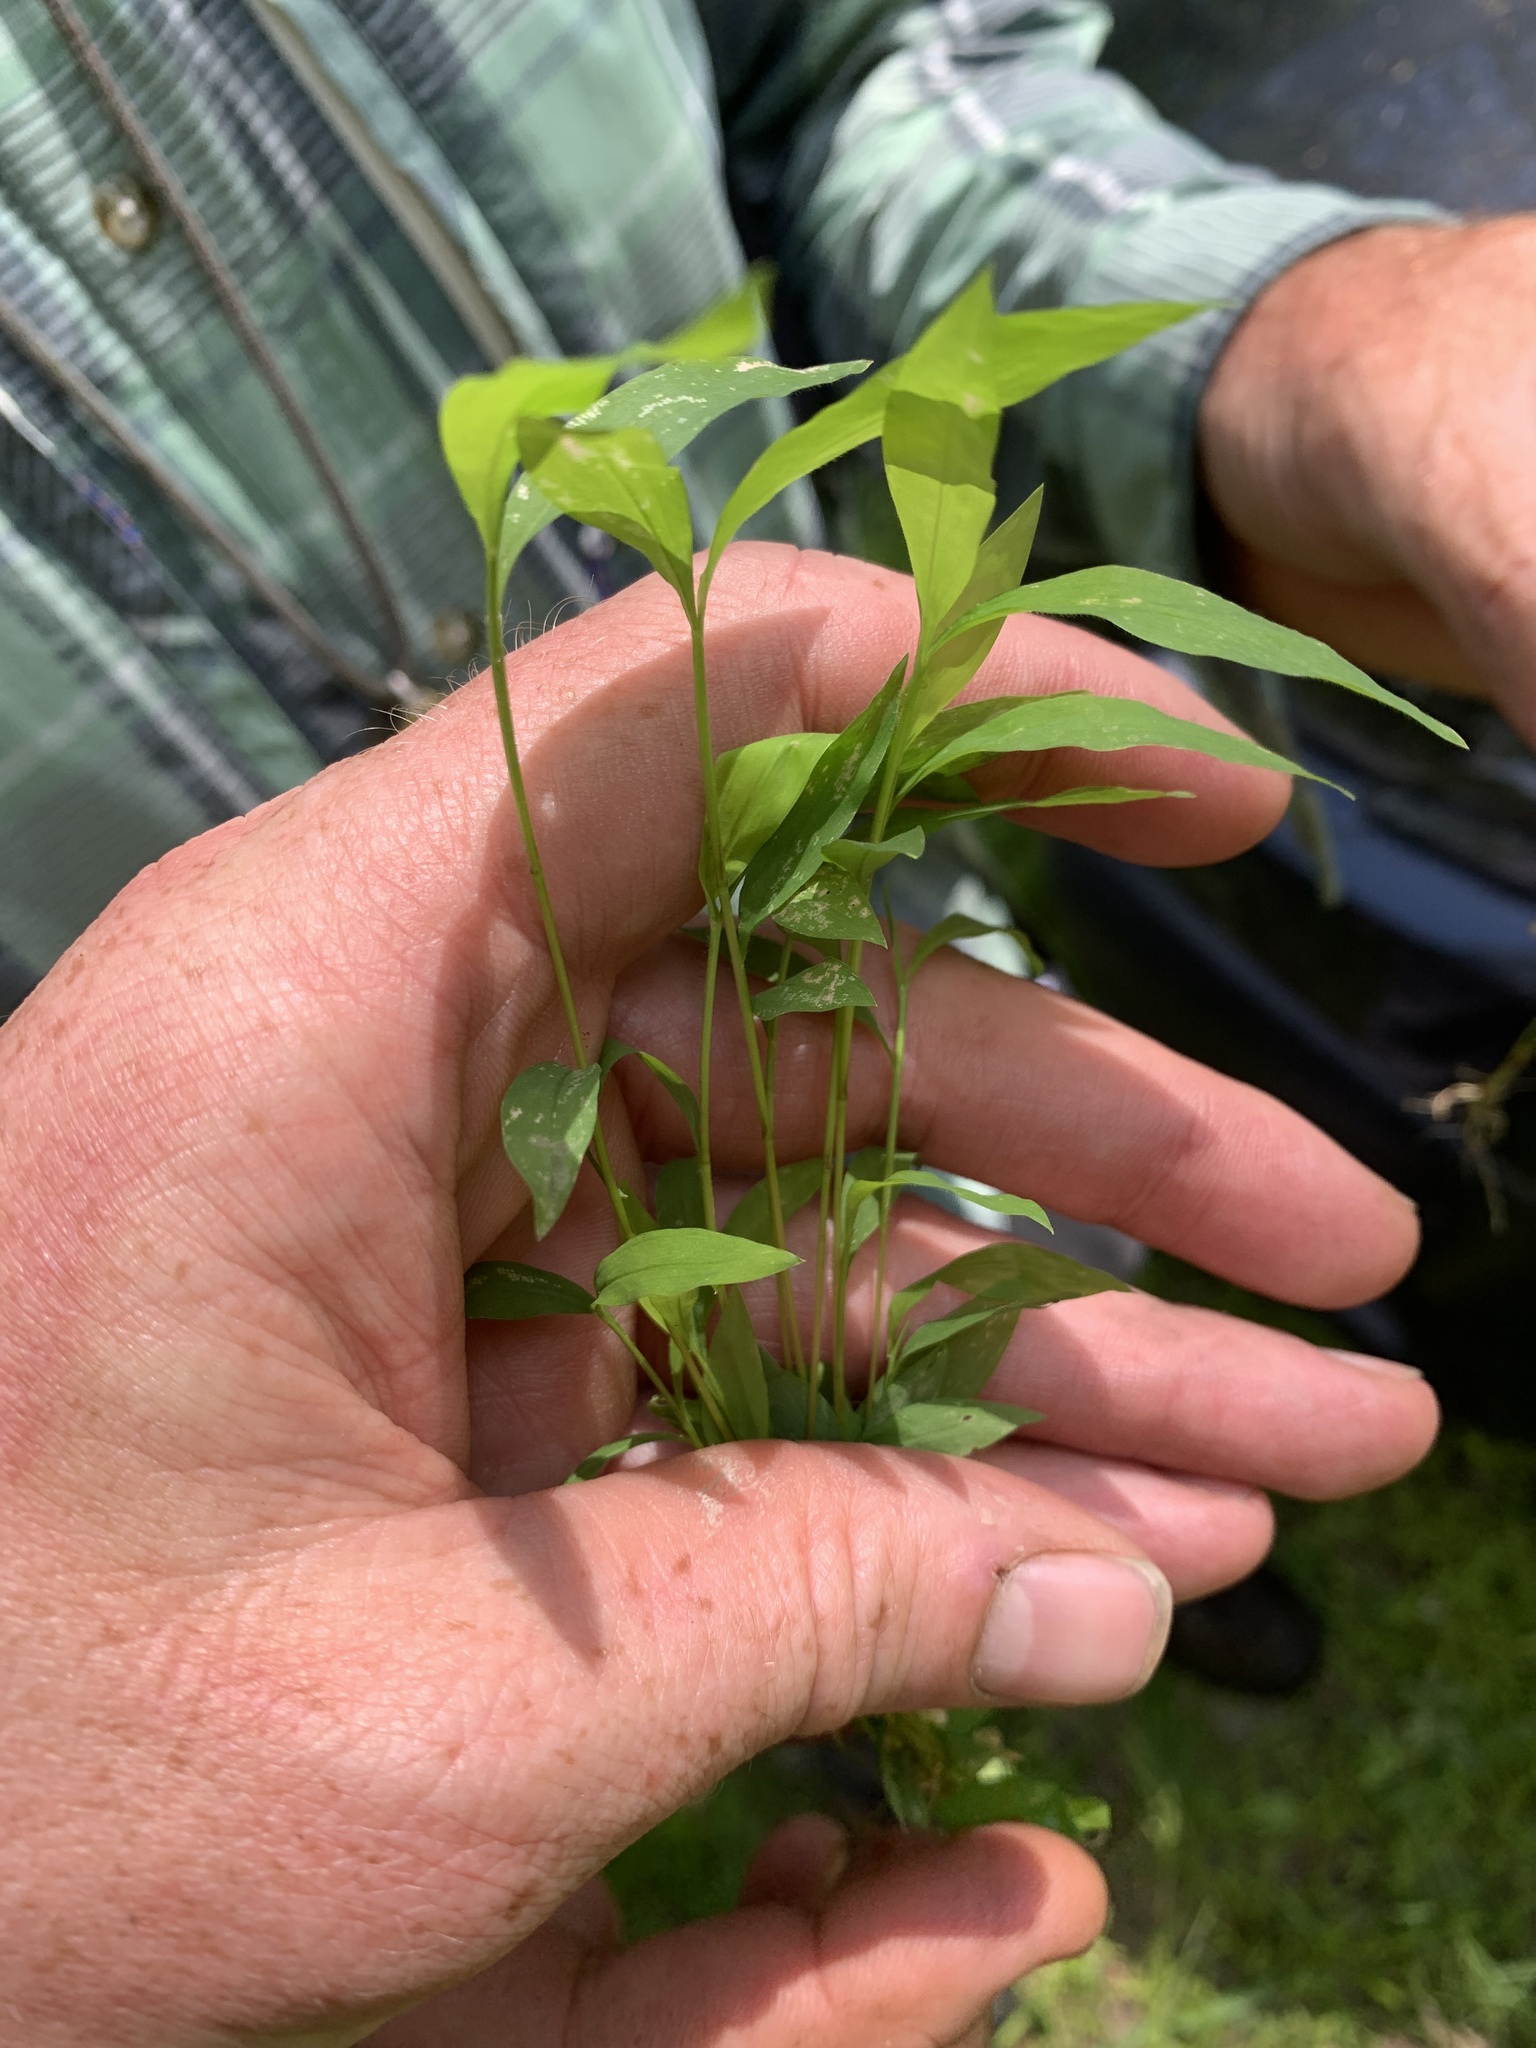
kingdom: Plantae
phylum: Tracheophyta
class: Liliopsida
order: Poales
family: Poaceae
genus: Microstegium
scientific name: Microstegium vimineum
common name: Japanese stiltgrass
